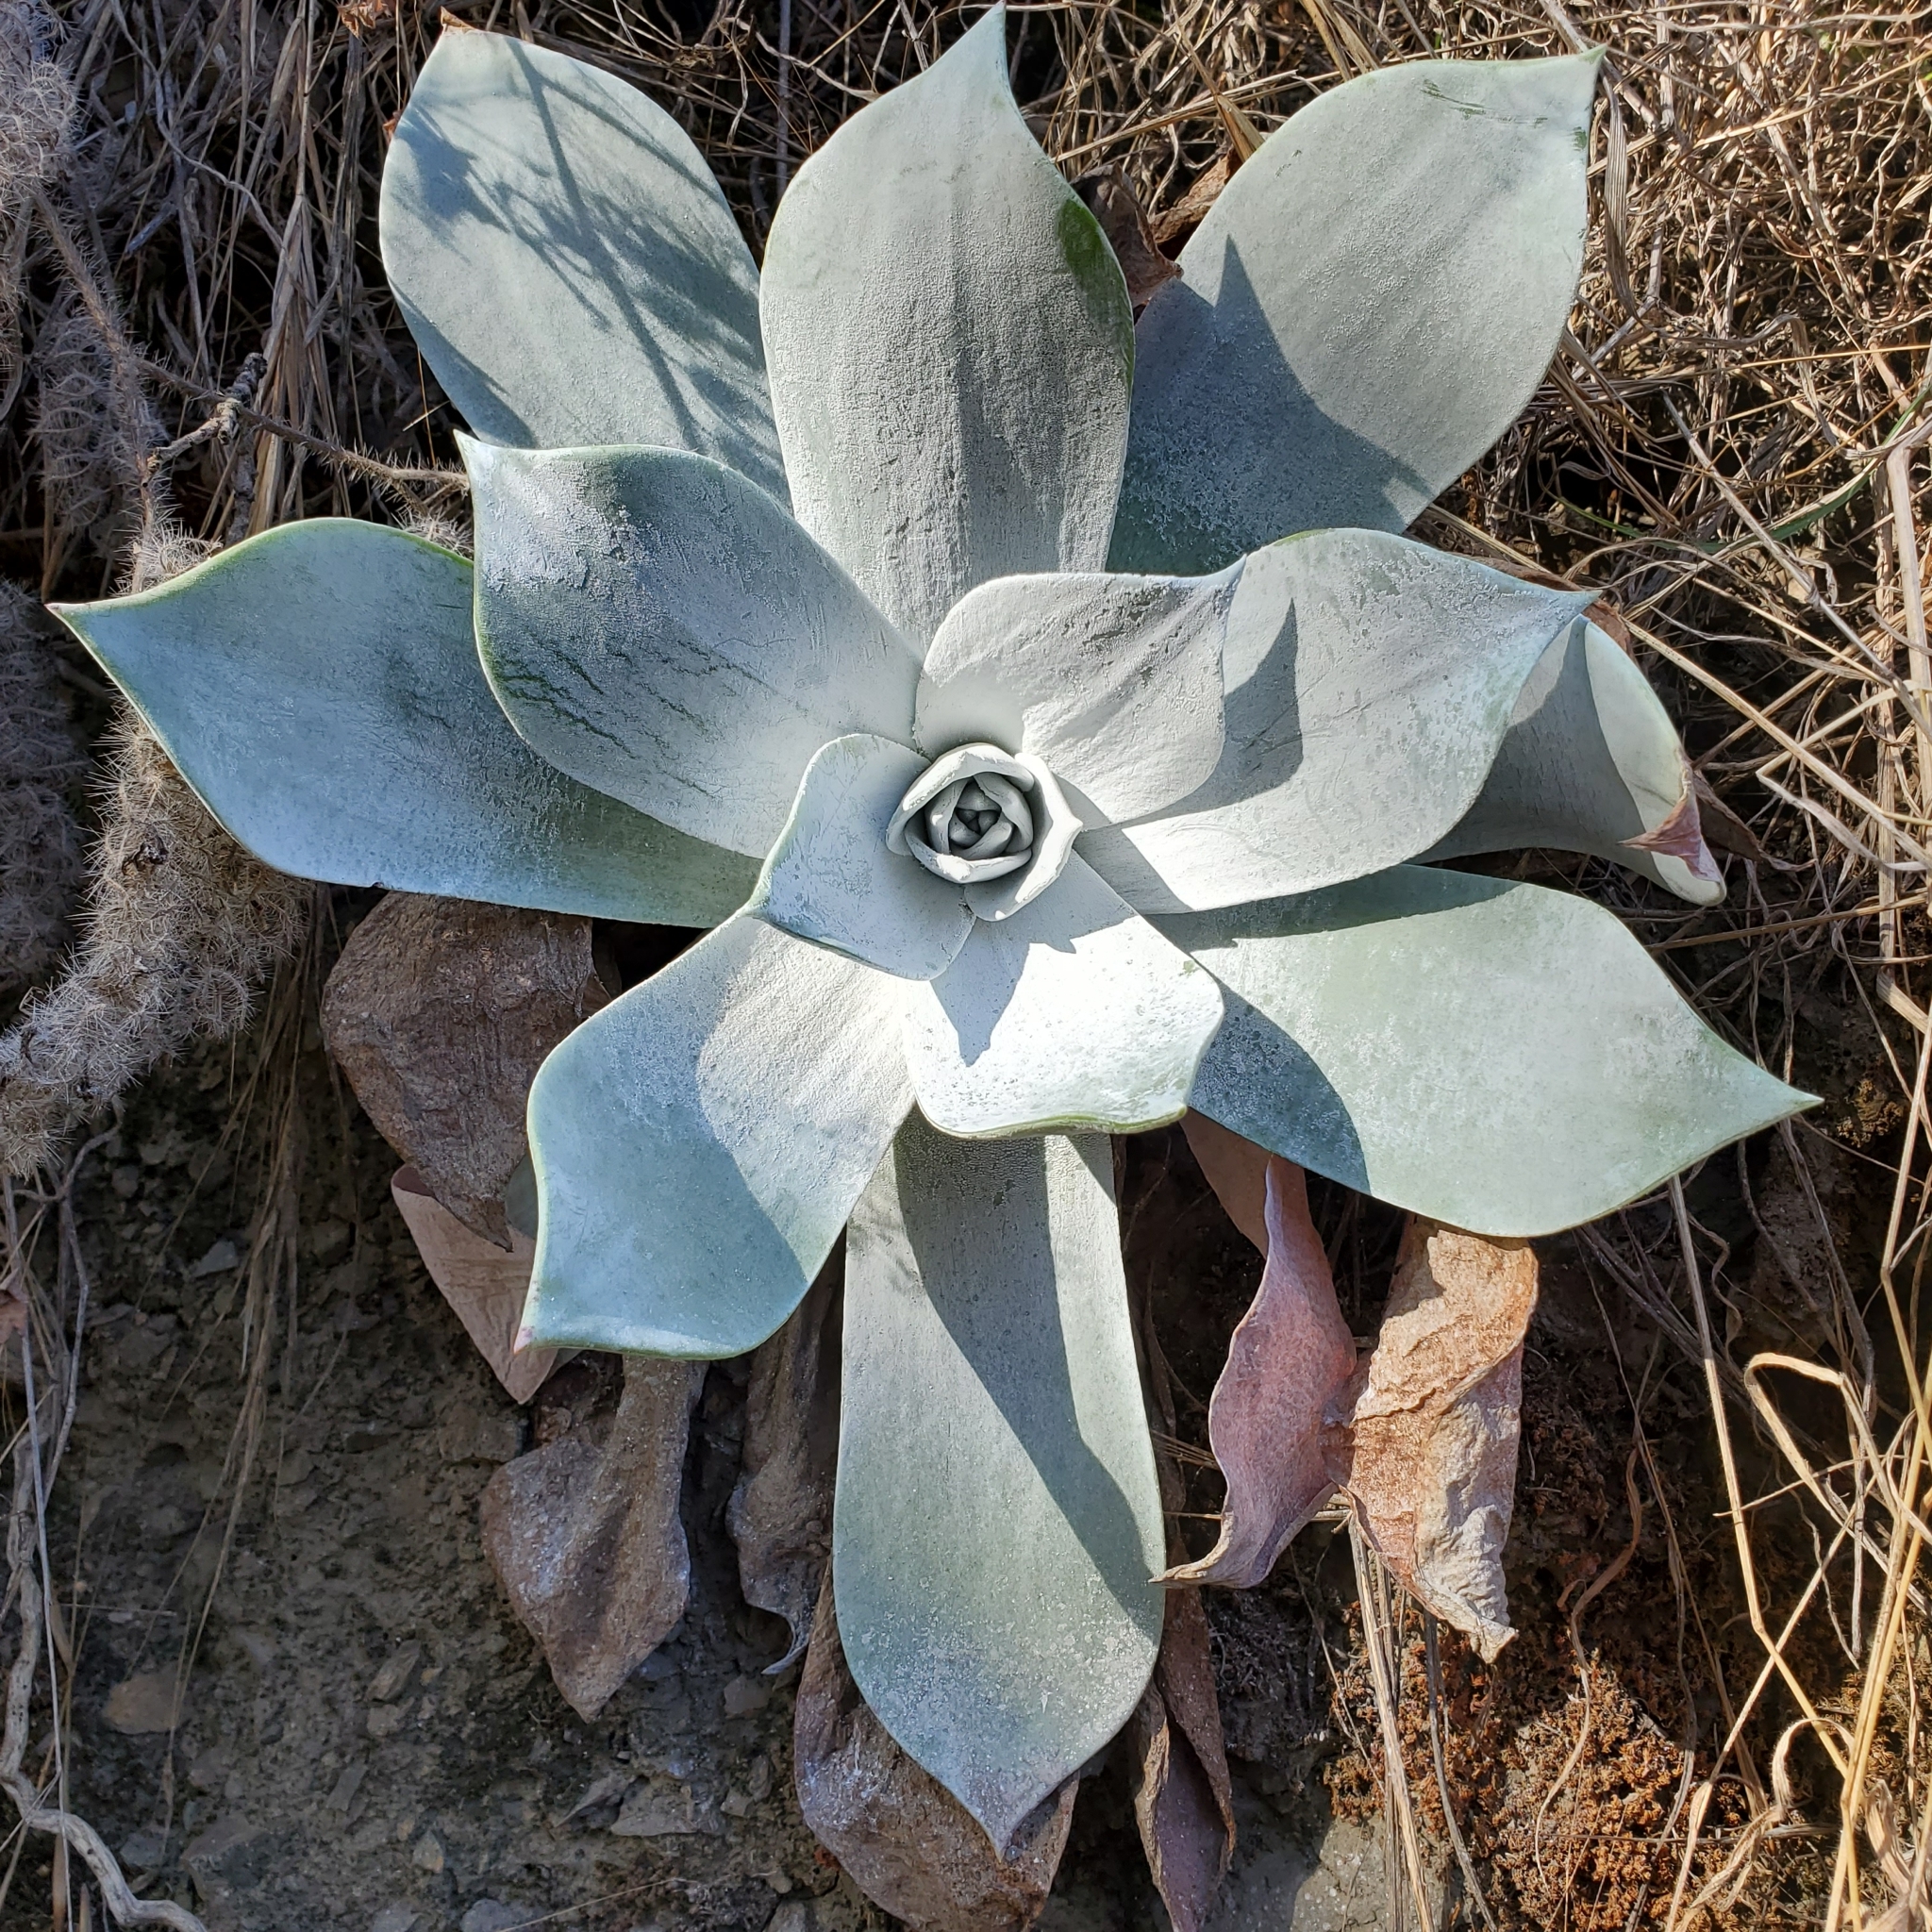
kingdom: Plantae
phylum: Tracheophyta
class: Magnoliopsida
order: Saxifragales
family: Crassulaceae
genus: Dudleya
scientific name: Dudleya pulverulenta
